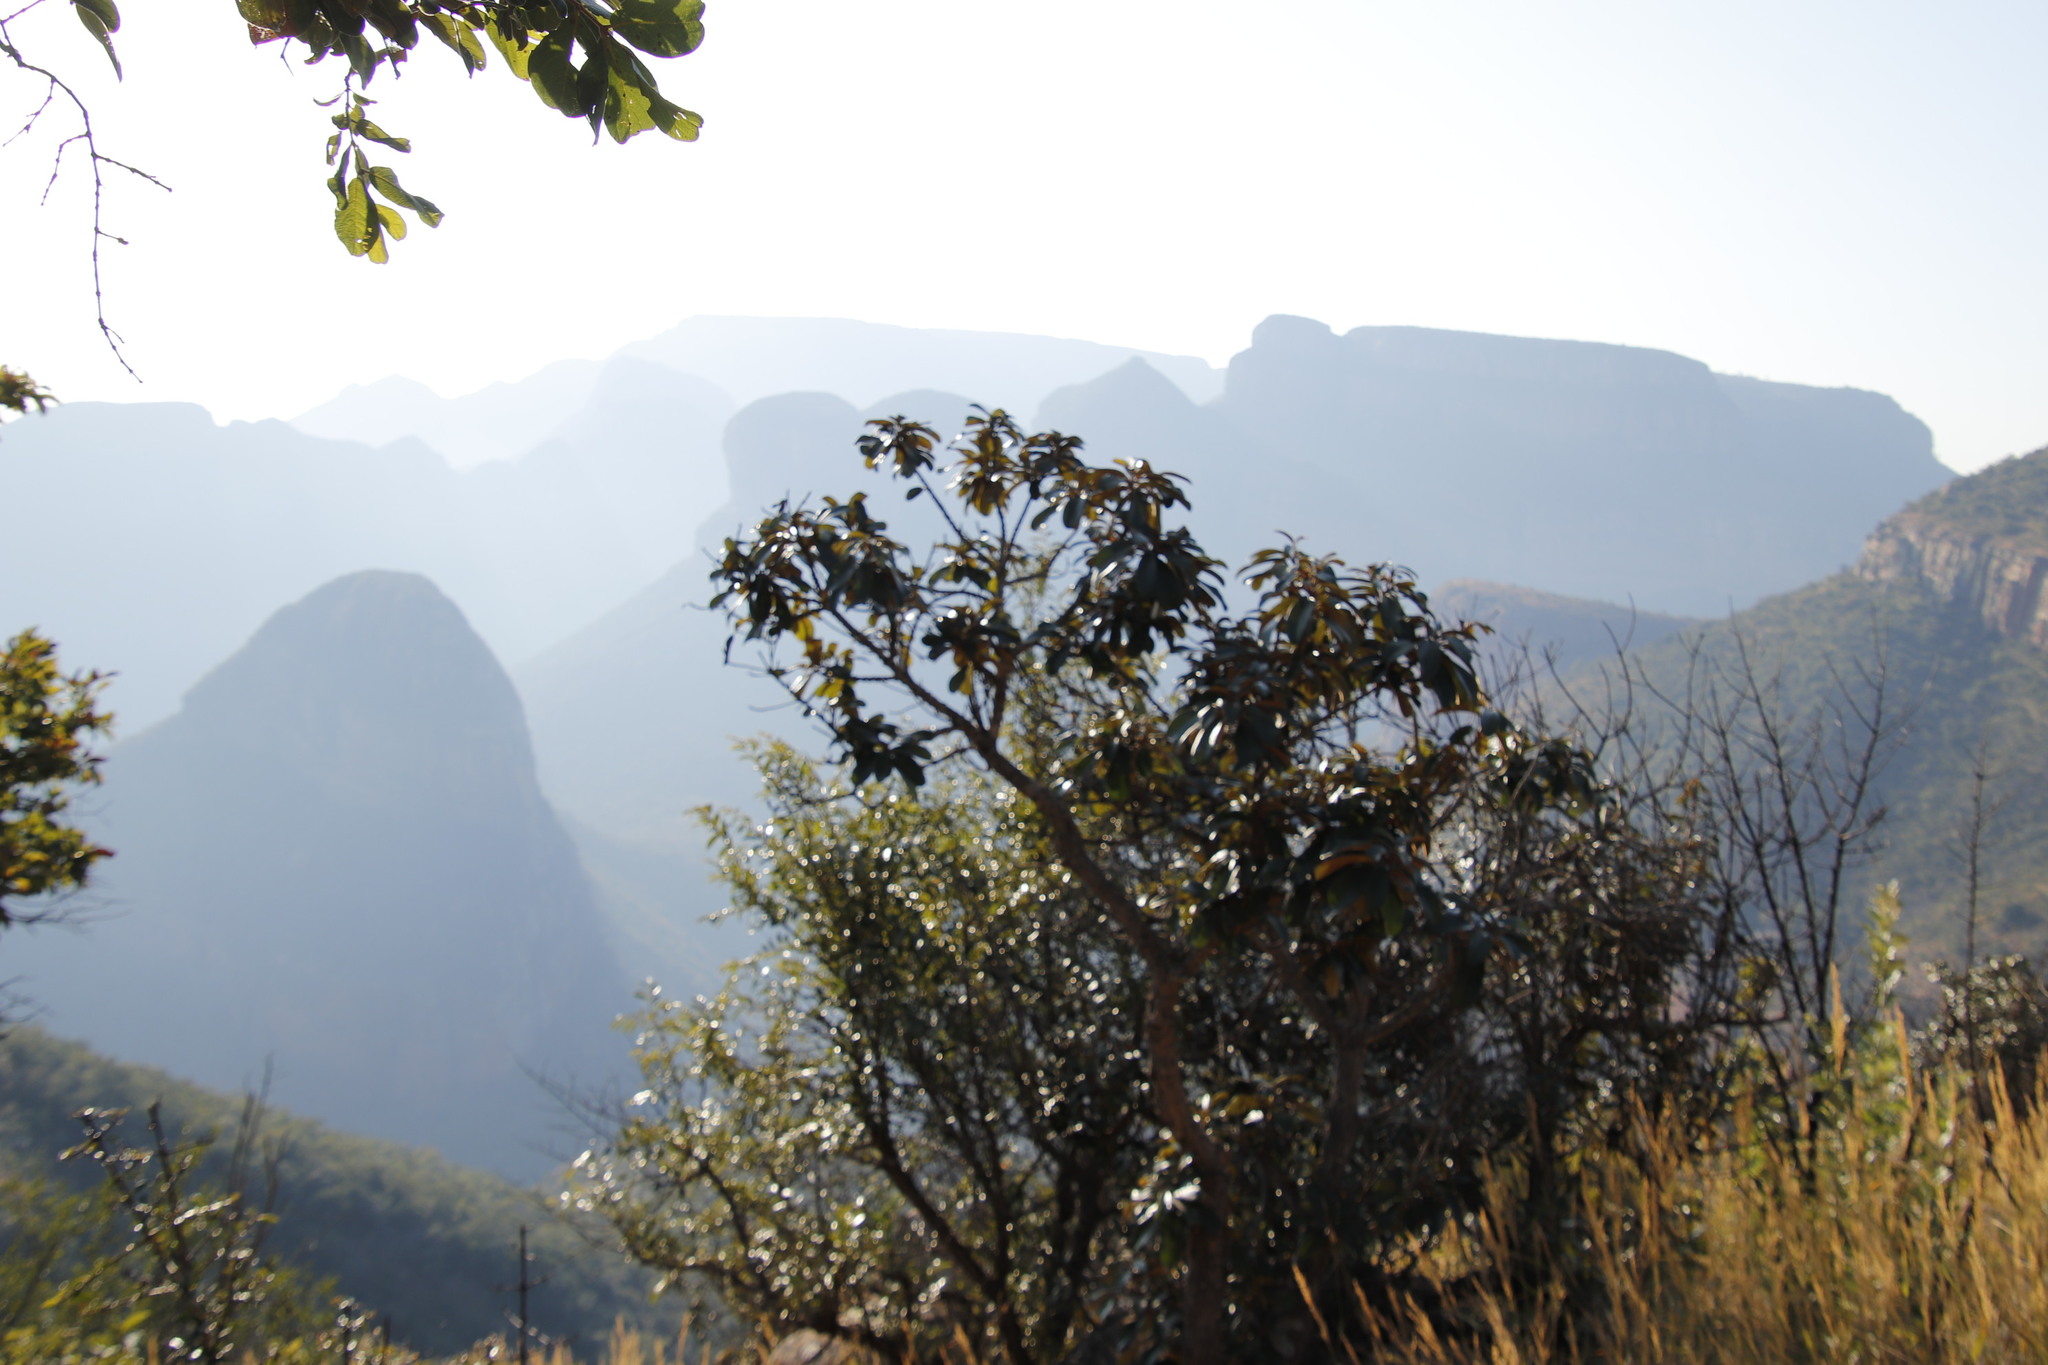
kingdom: Plantae
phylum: Tracheophyta
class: Magnoliopsida
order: Ericales
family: Sapotaceae
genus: Englerophytum
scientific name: Englerophytum magalismontanum
